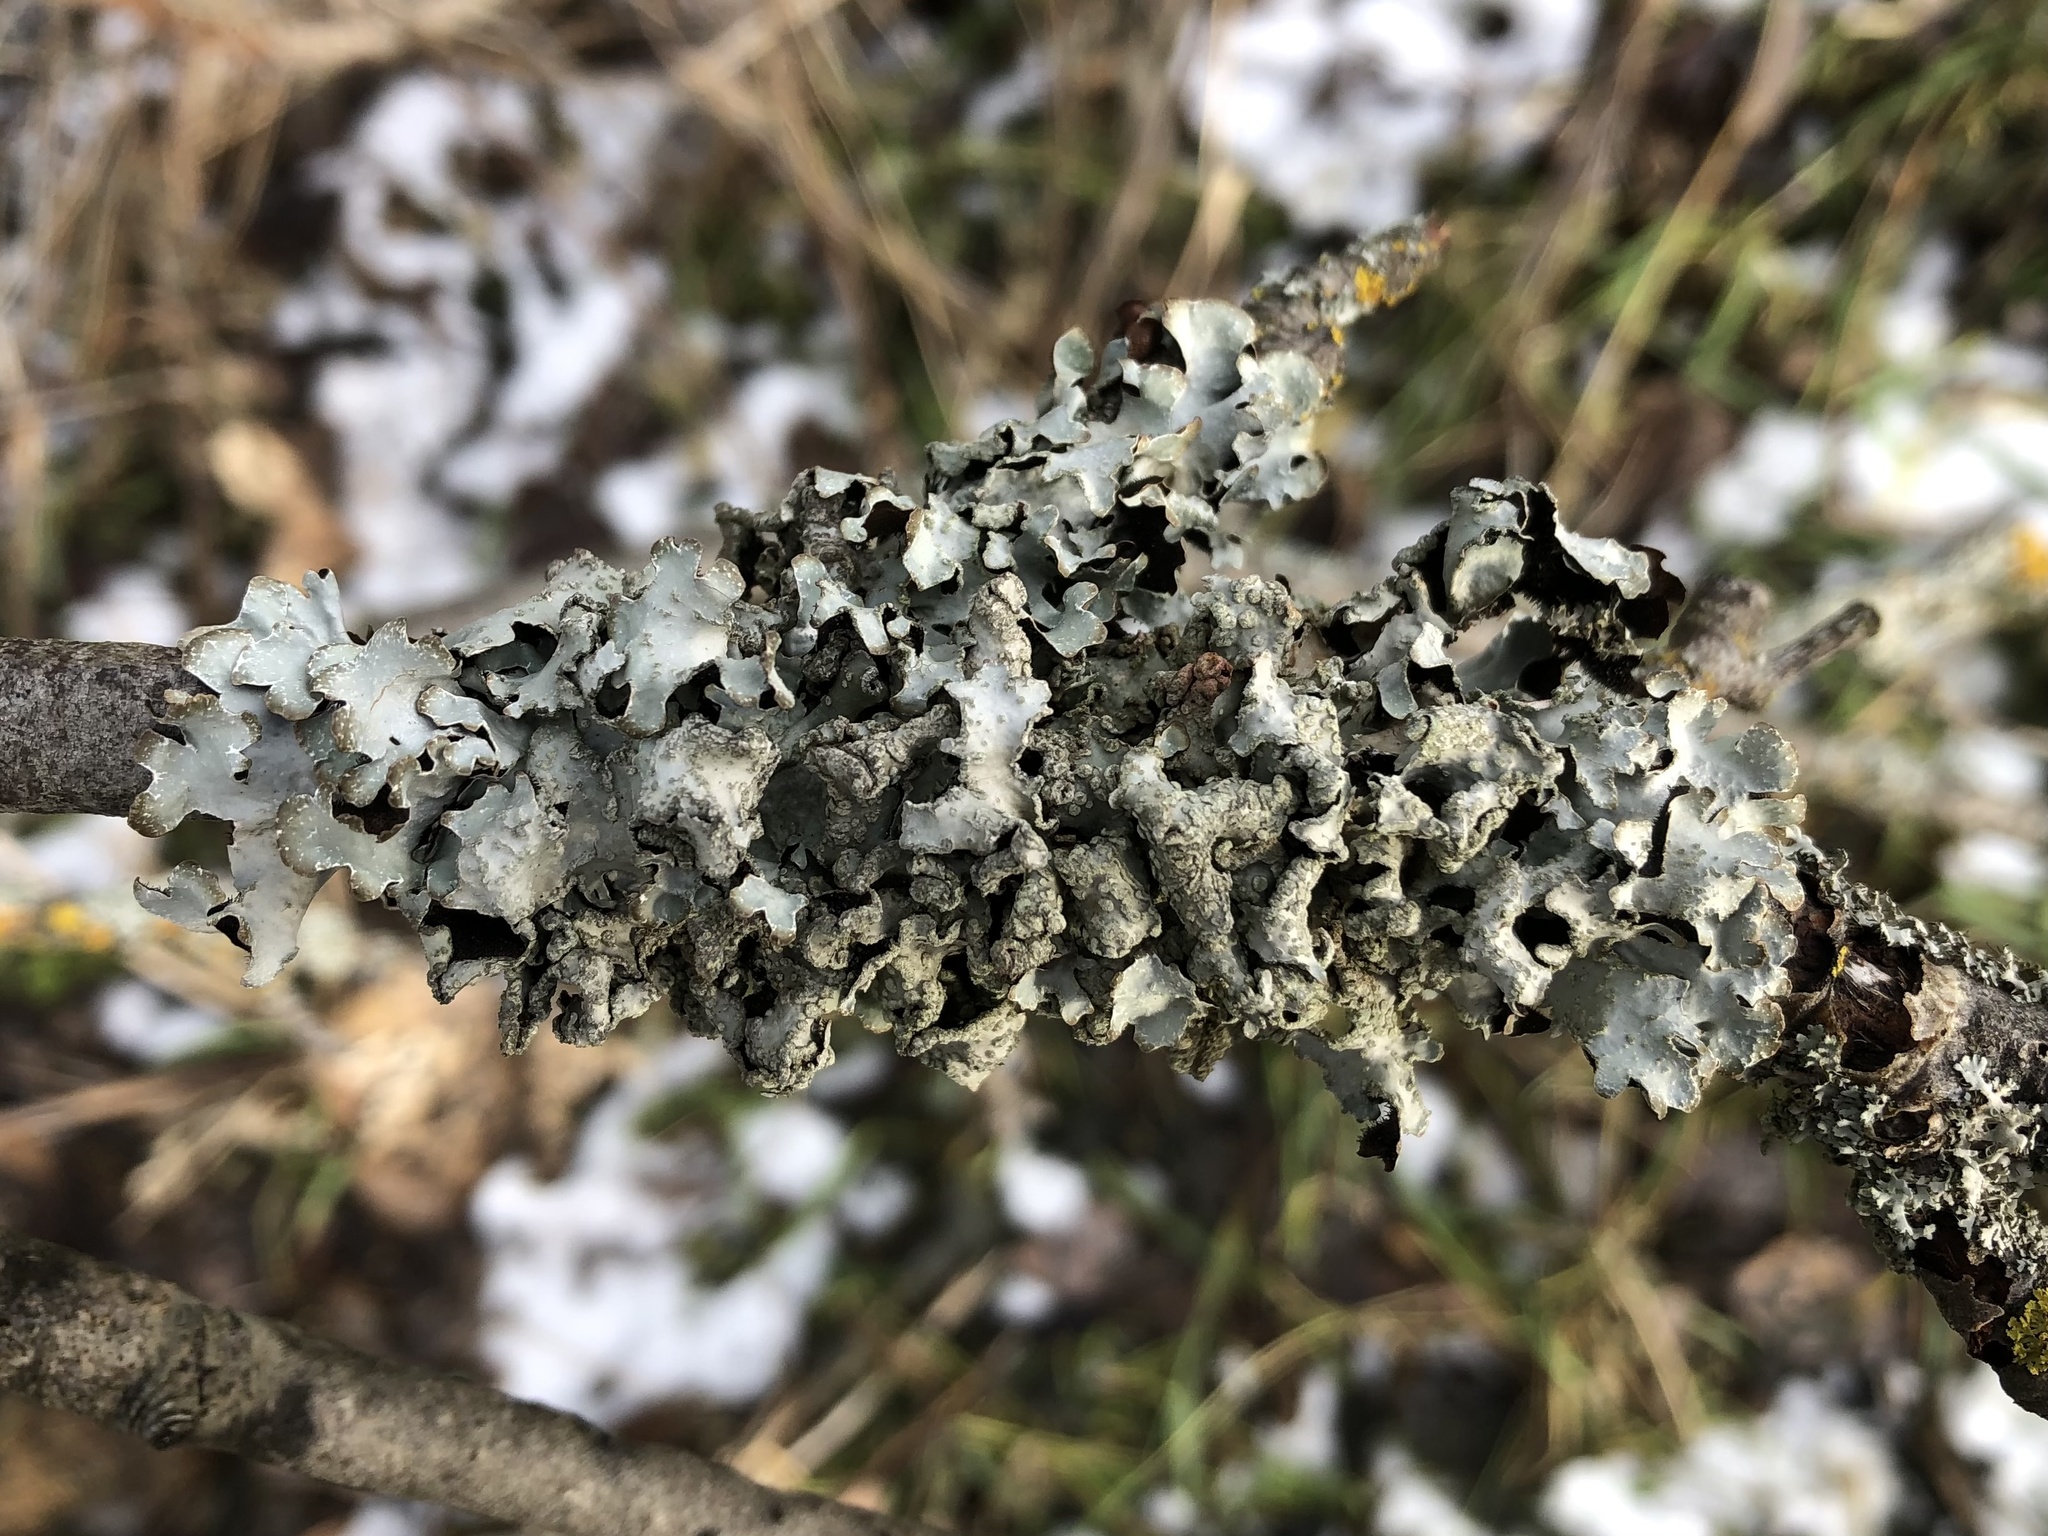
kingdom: Fungi
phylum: Ascomycota
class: Lecanoromycetes
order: Lecanorales
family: Parmeliaceae
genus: Parmelia
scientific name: Parmelia sulcata
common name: Netted shield lichen
